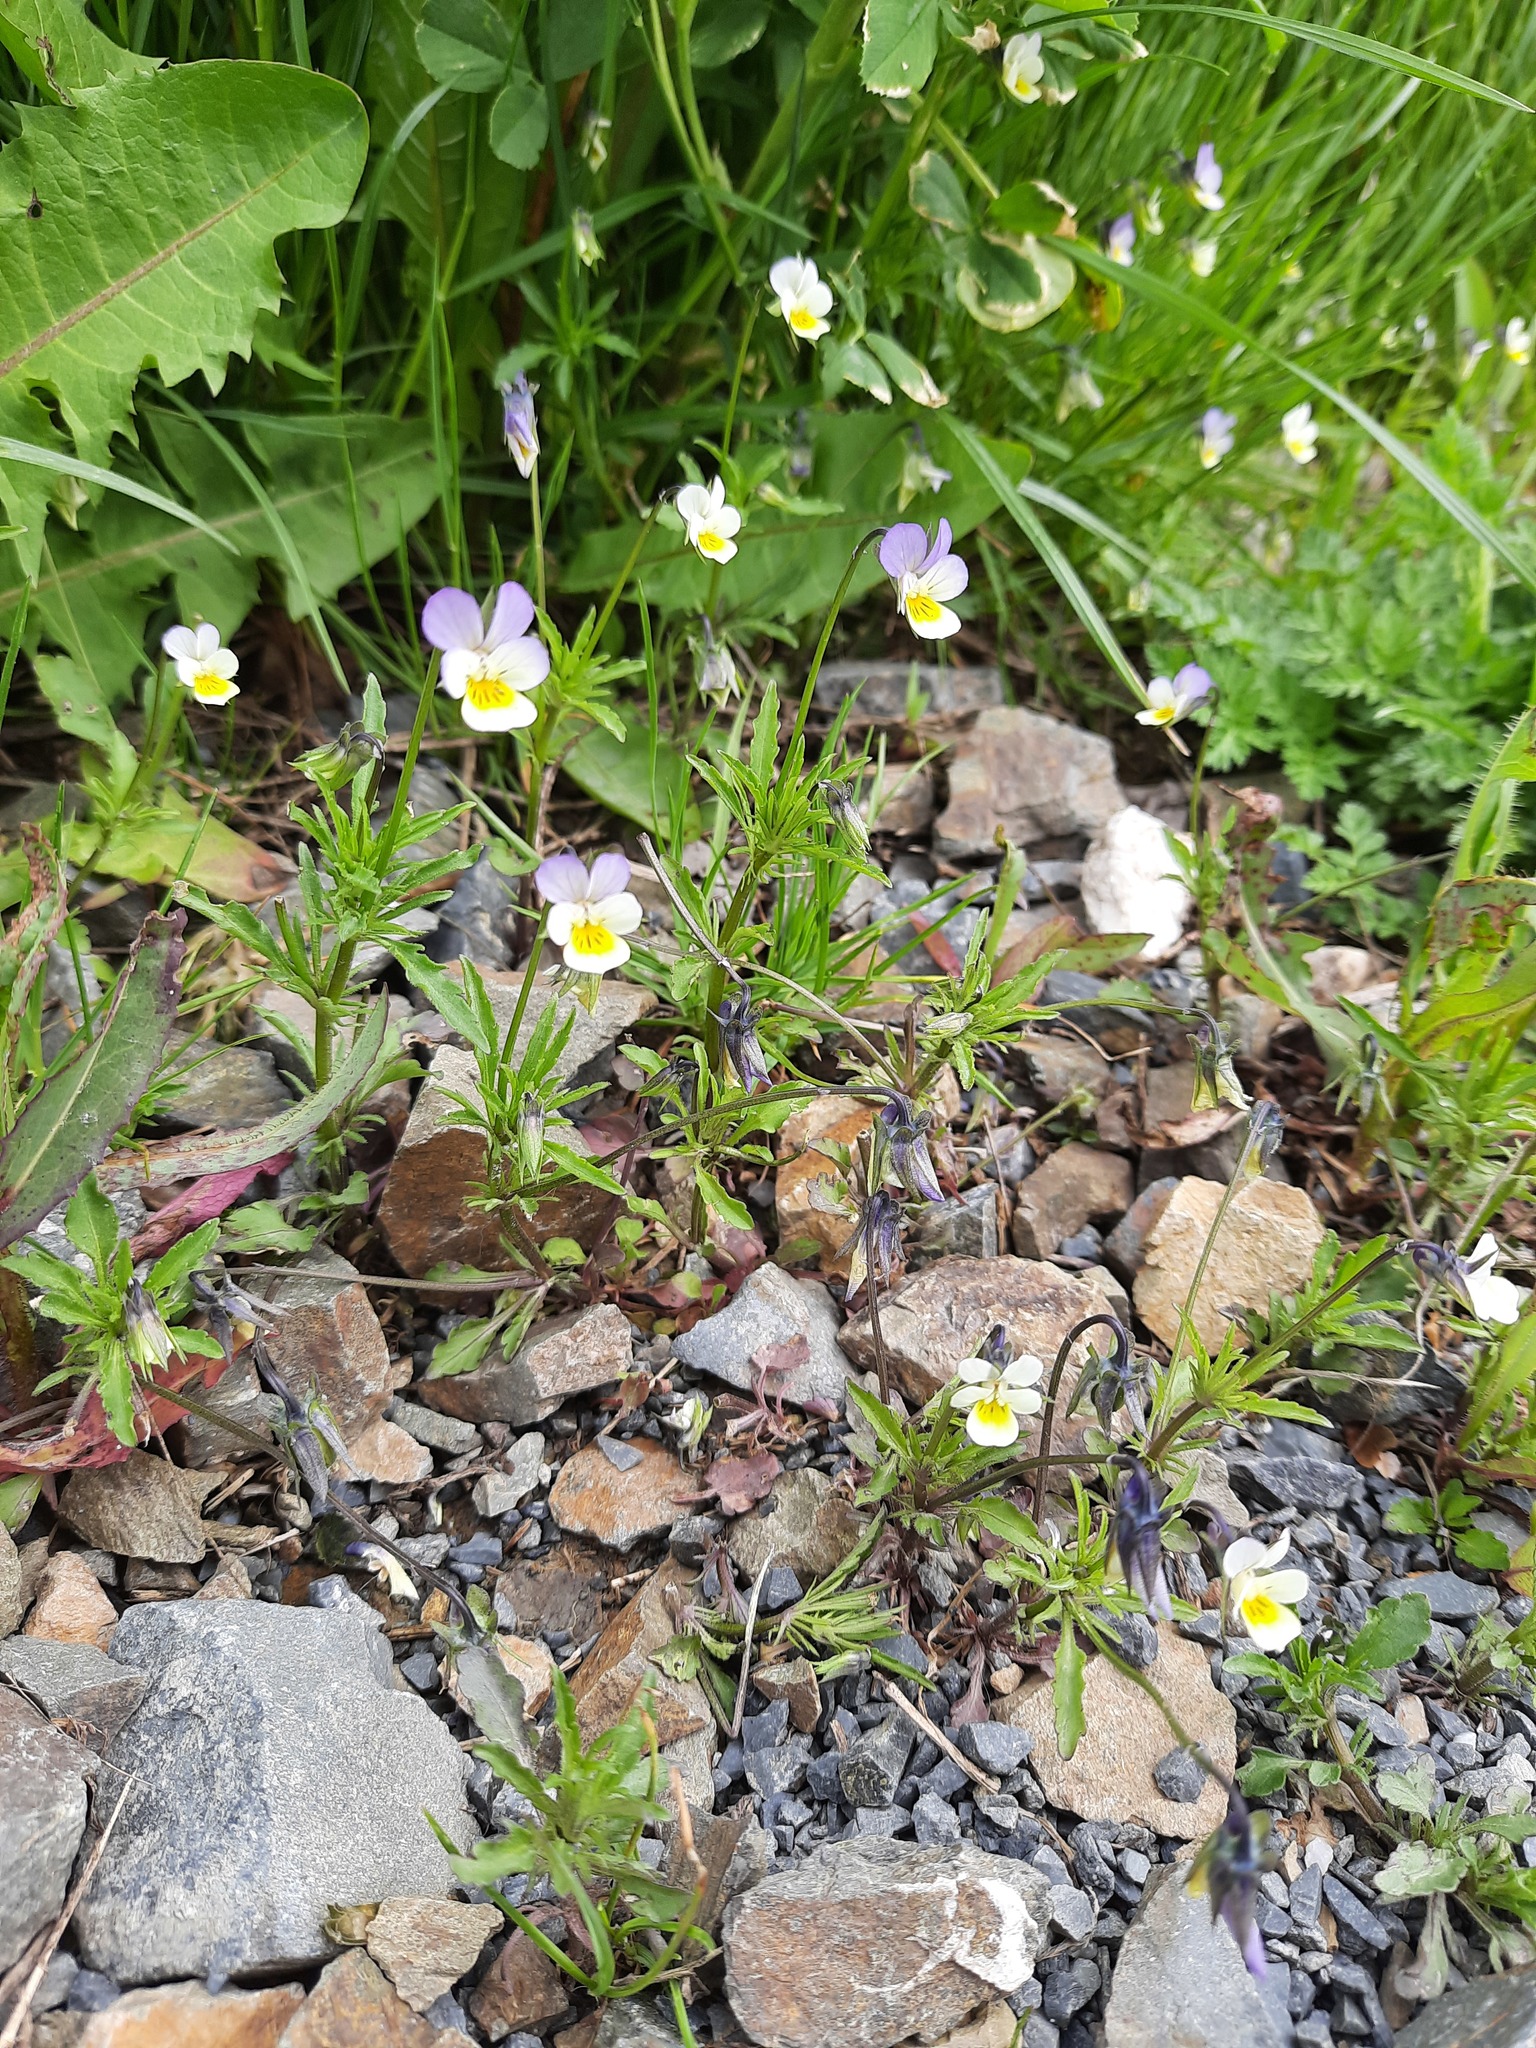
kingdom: Plantae
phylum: Tracheophyta
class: Magnoliopsida
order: Malpighiales
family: Violaceae
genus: Viola
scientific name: Viola tricolor
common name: Pansy
